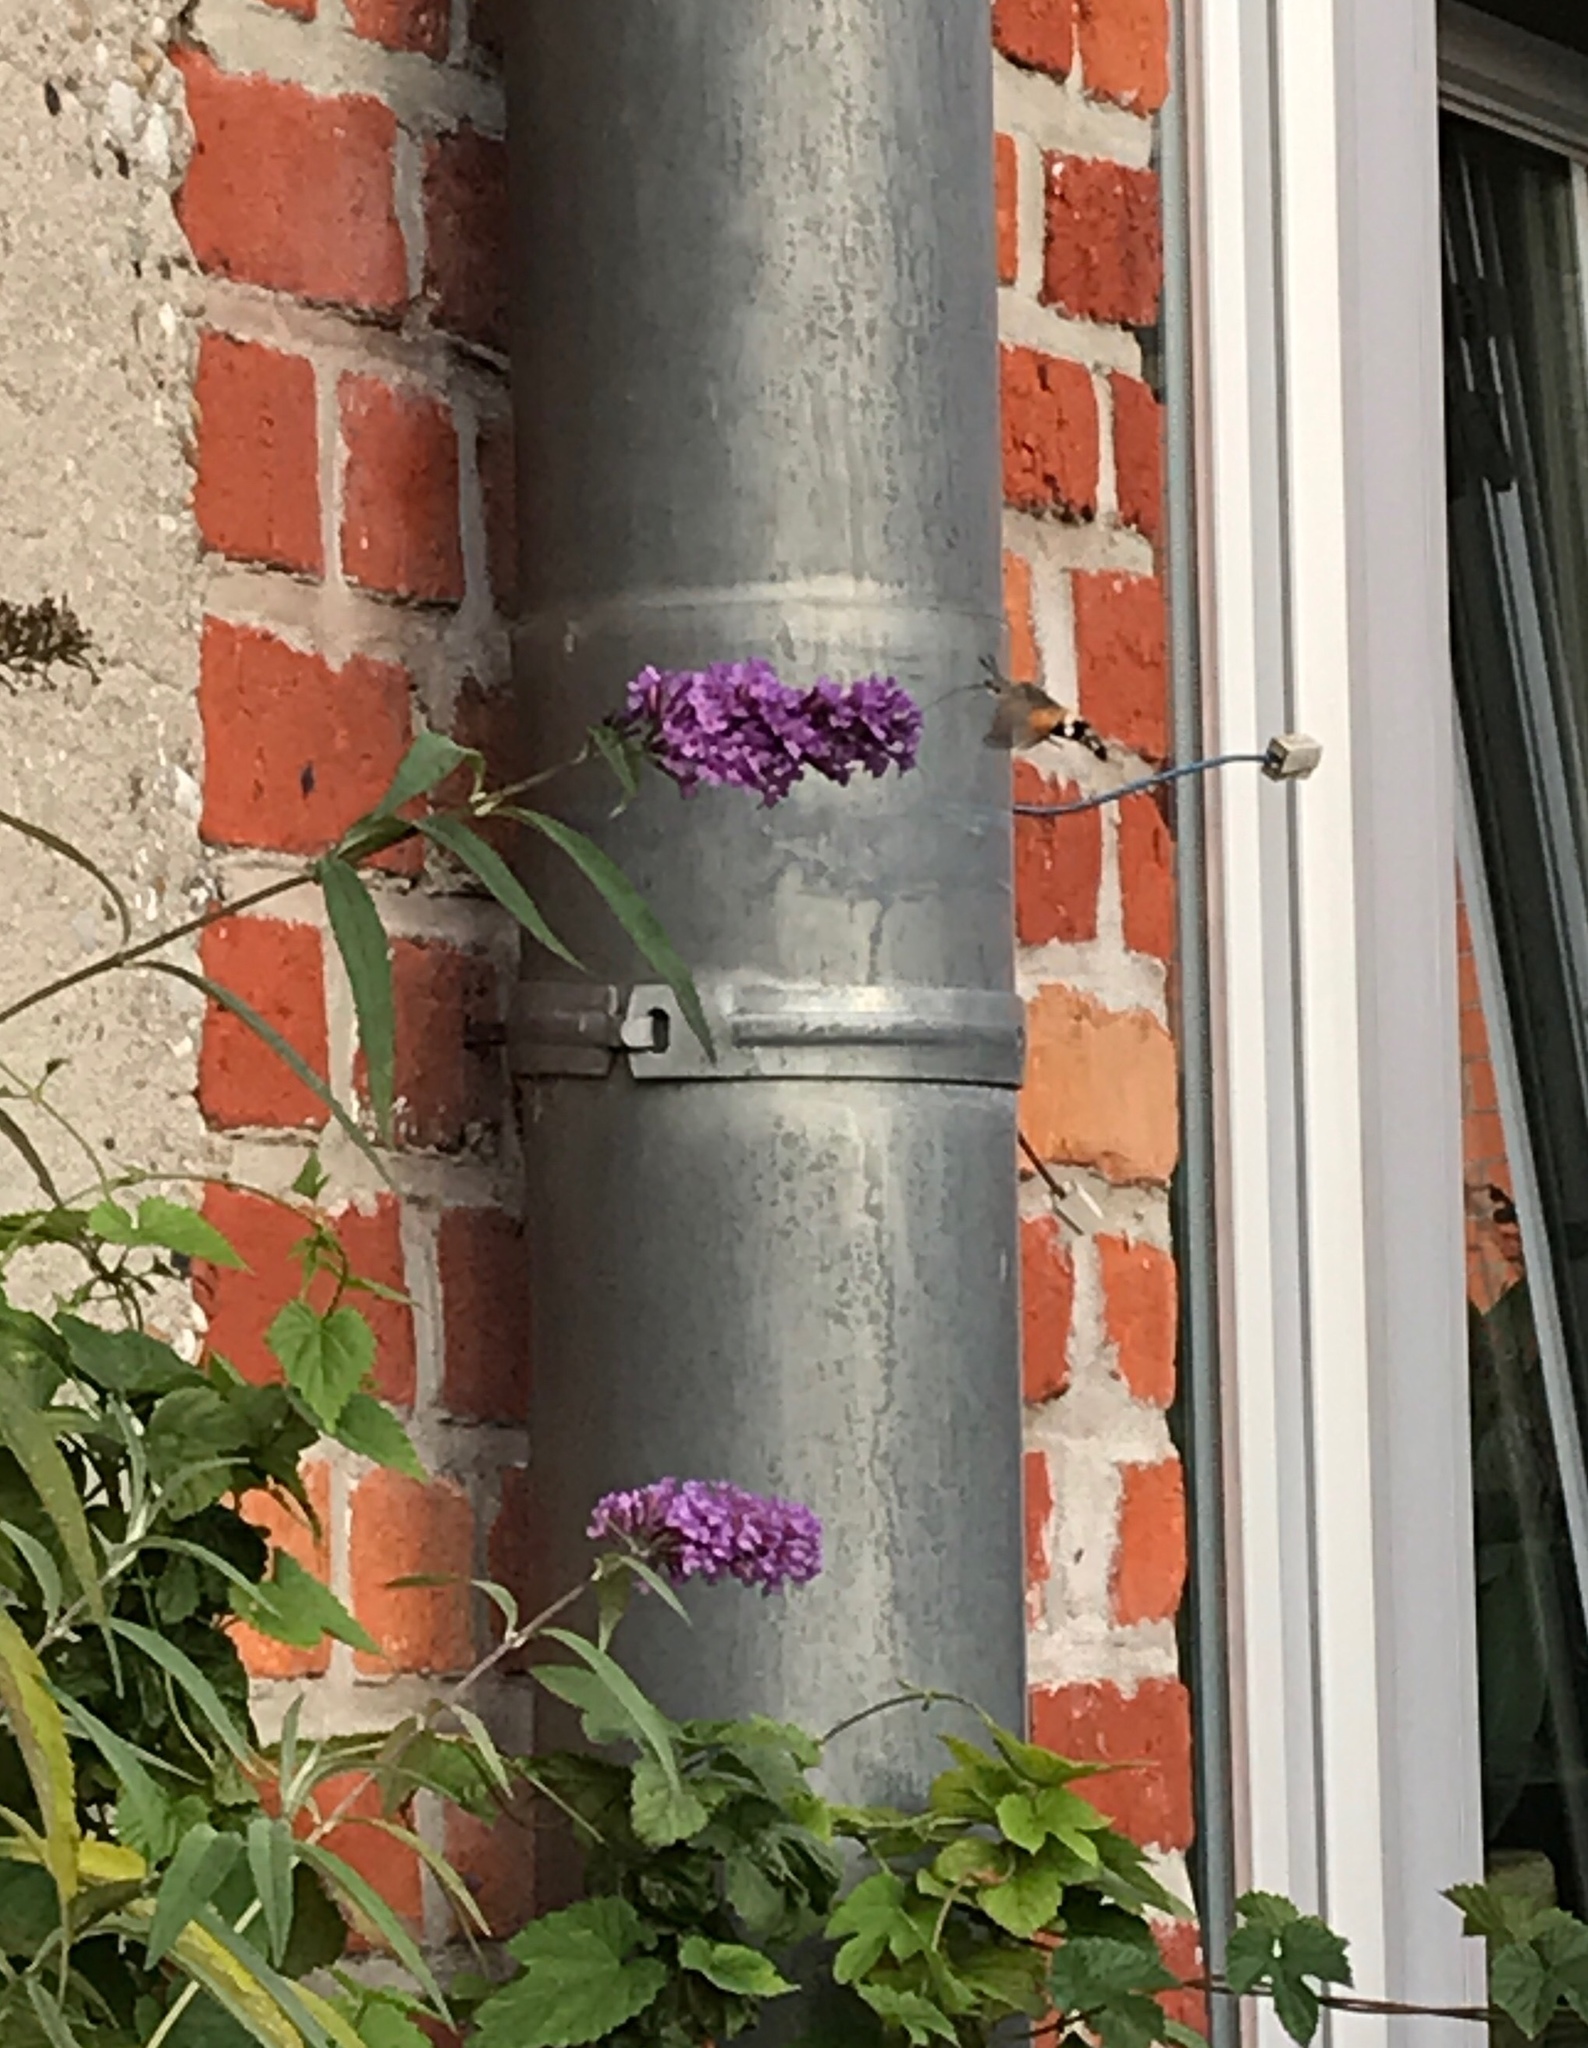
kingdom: Animalia
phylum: Arthropoda
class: Insecta
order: Lepidoptera
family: Sphingidae
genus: Macroglossum
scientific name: Macroglossum stellatarum
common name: Humming-bird hawk-moth
